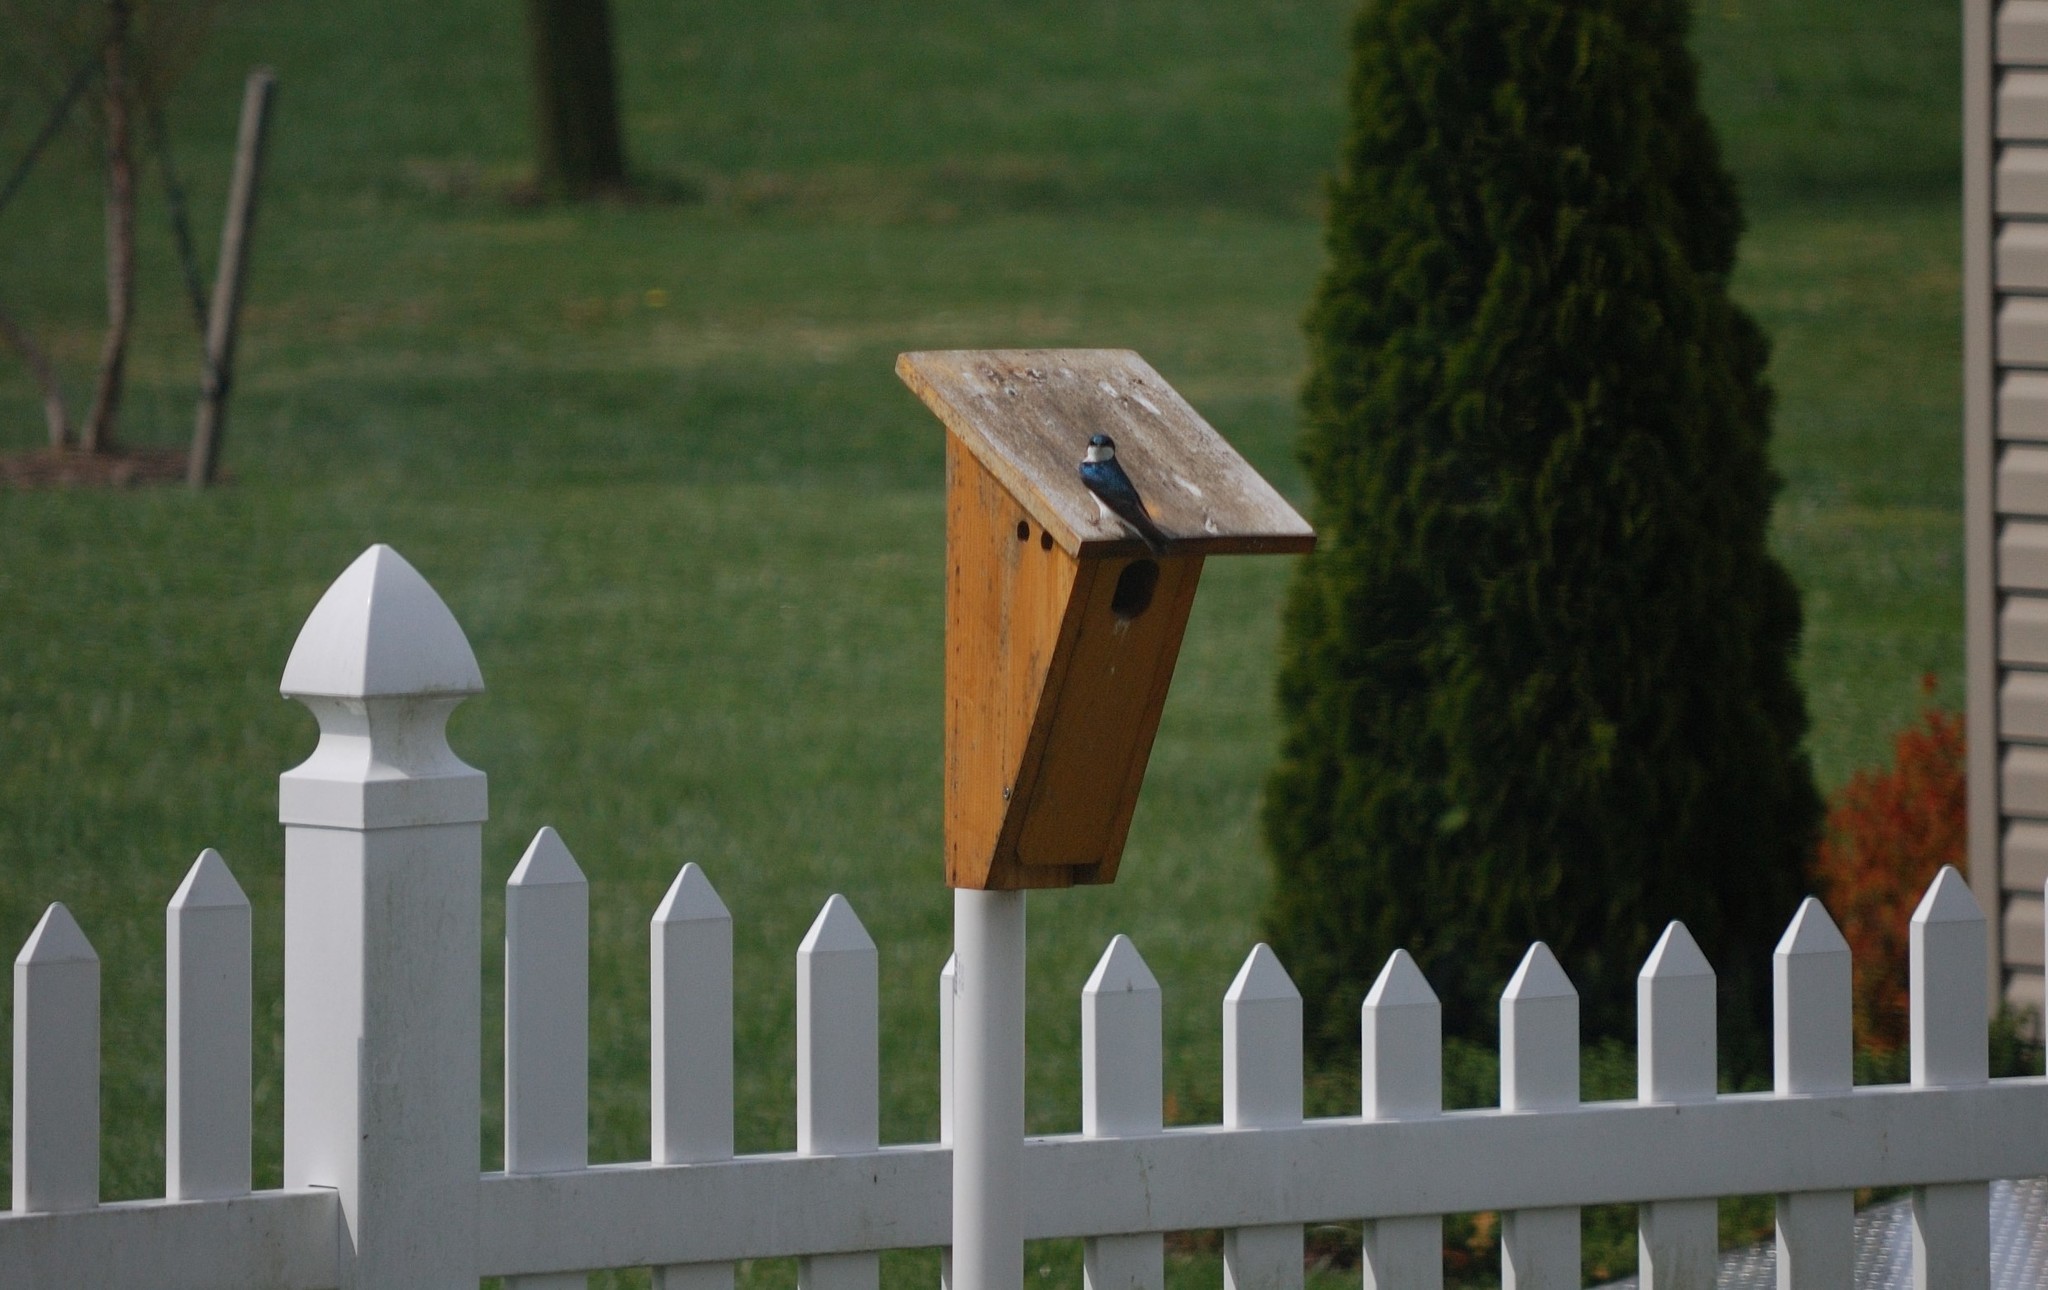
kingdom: Animalia
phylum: Chordata
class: Aves
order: Passeriformes
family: Hirundinidae
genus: Tachycineta
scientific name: Tachycineta bicolor
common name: Tree swallow
